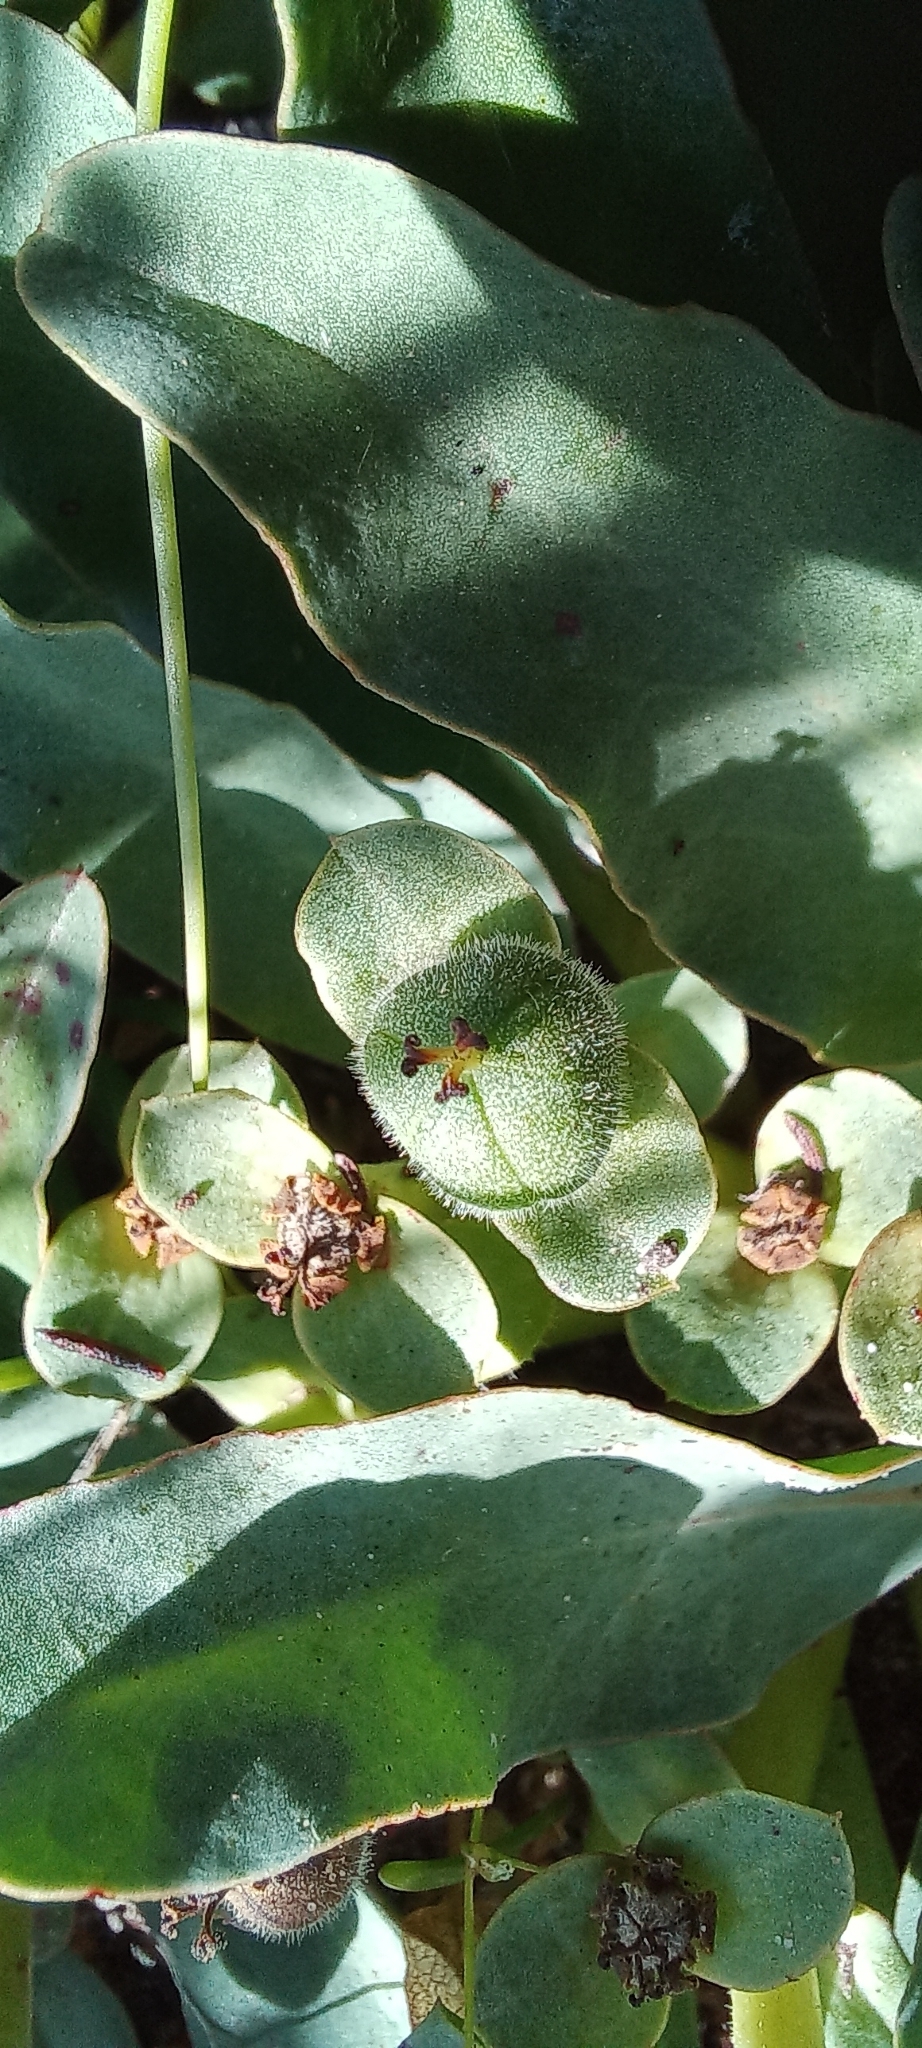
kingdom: Plantae
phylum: Tracheophyta
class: Magnoliopsida
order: Malpighiales
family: Euphorbiaceae
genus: Euphorbia
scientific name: Euphorbia tuberosa
